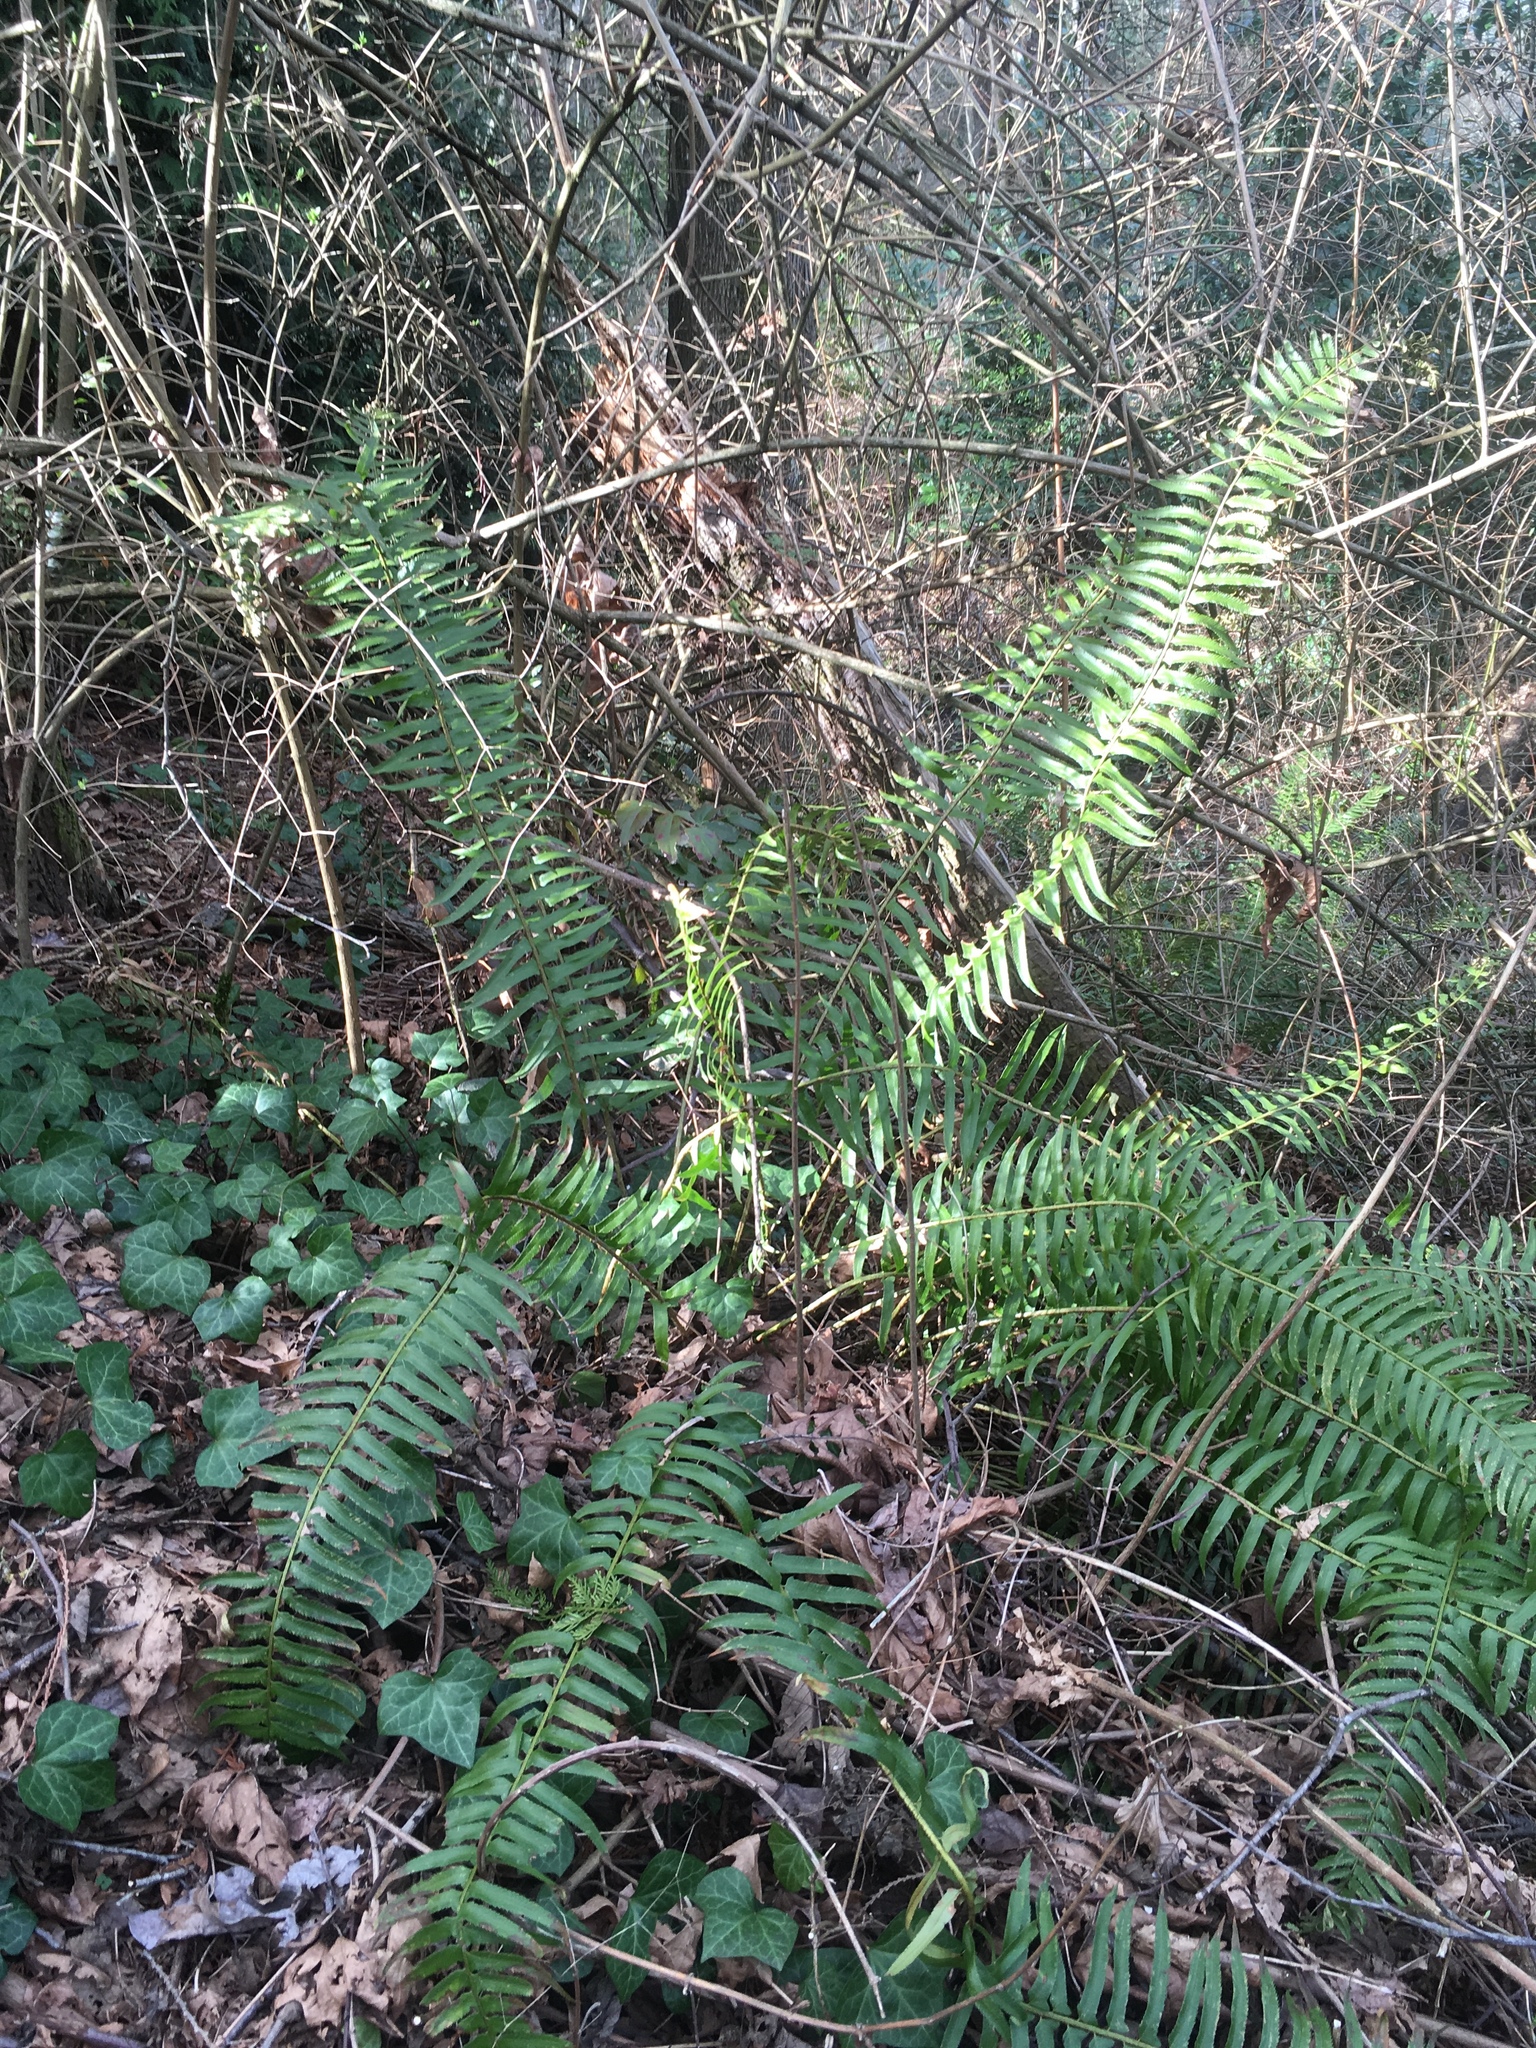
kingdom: Plantae
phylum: Tracheophyta
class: Polypodiopsida
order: Polypodiales
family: Dryopteridaceae
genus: Polystichum
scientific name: Polystichum munitum
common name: Western sword-fern
